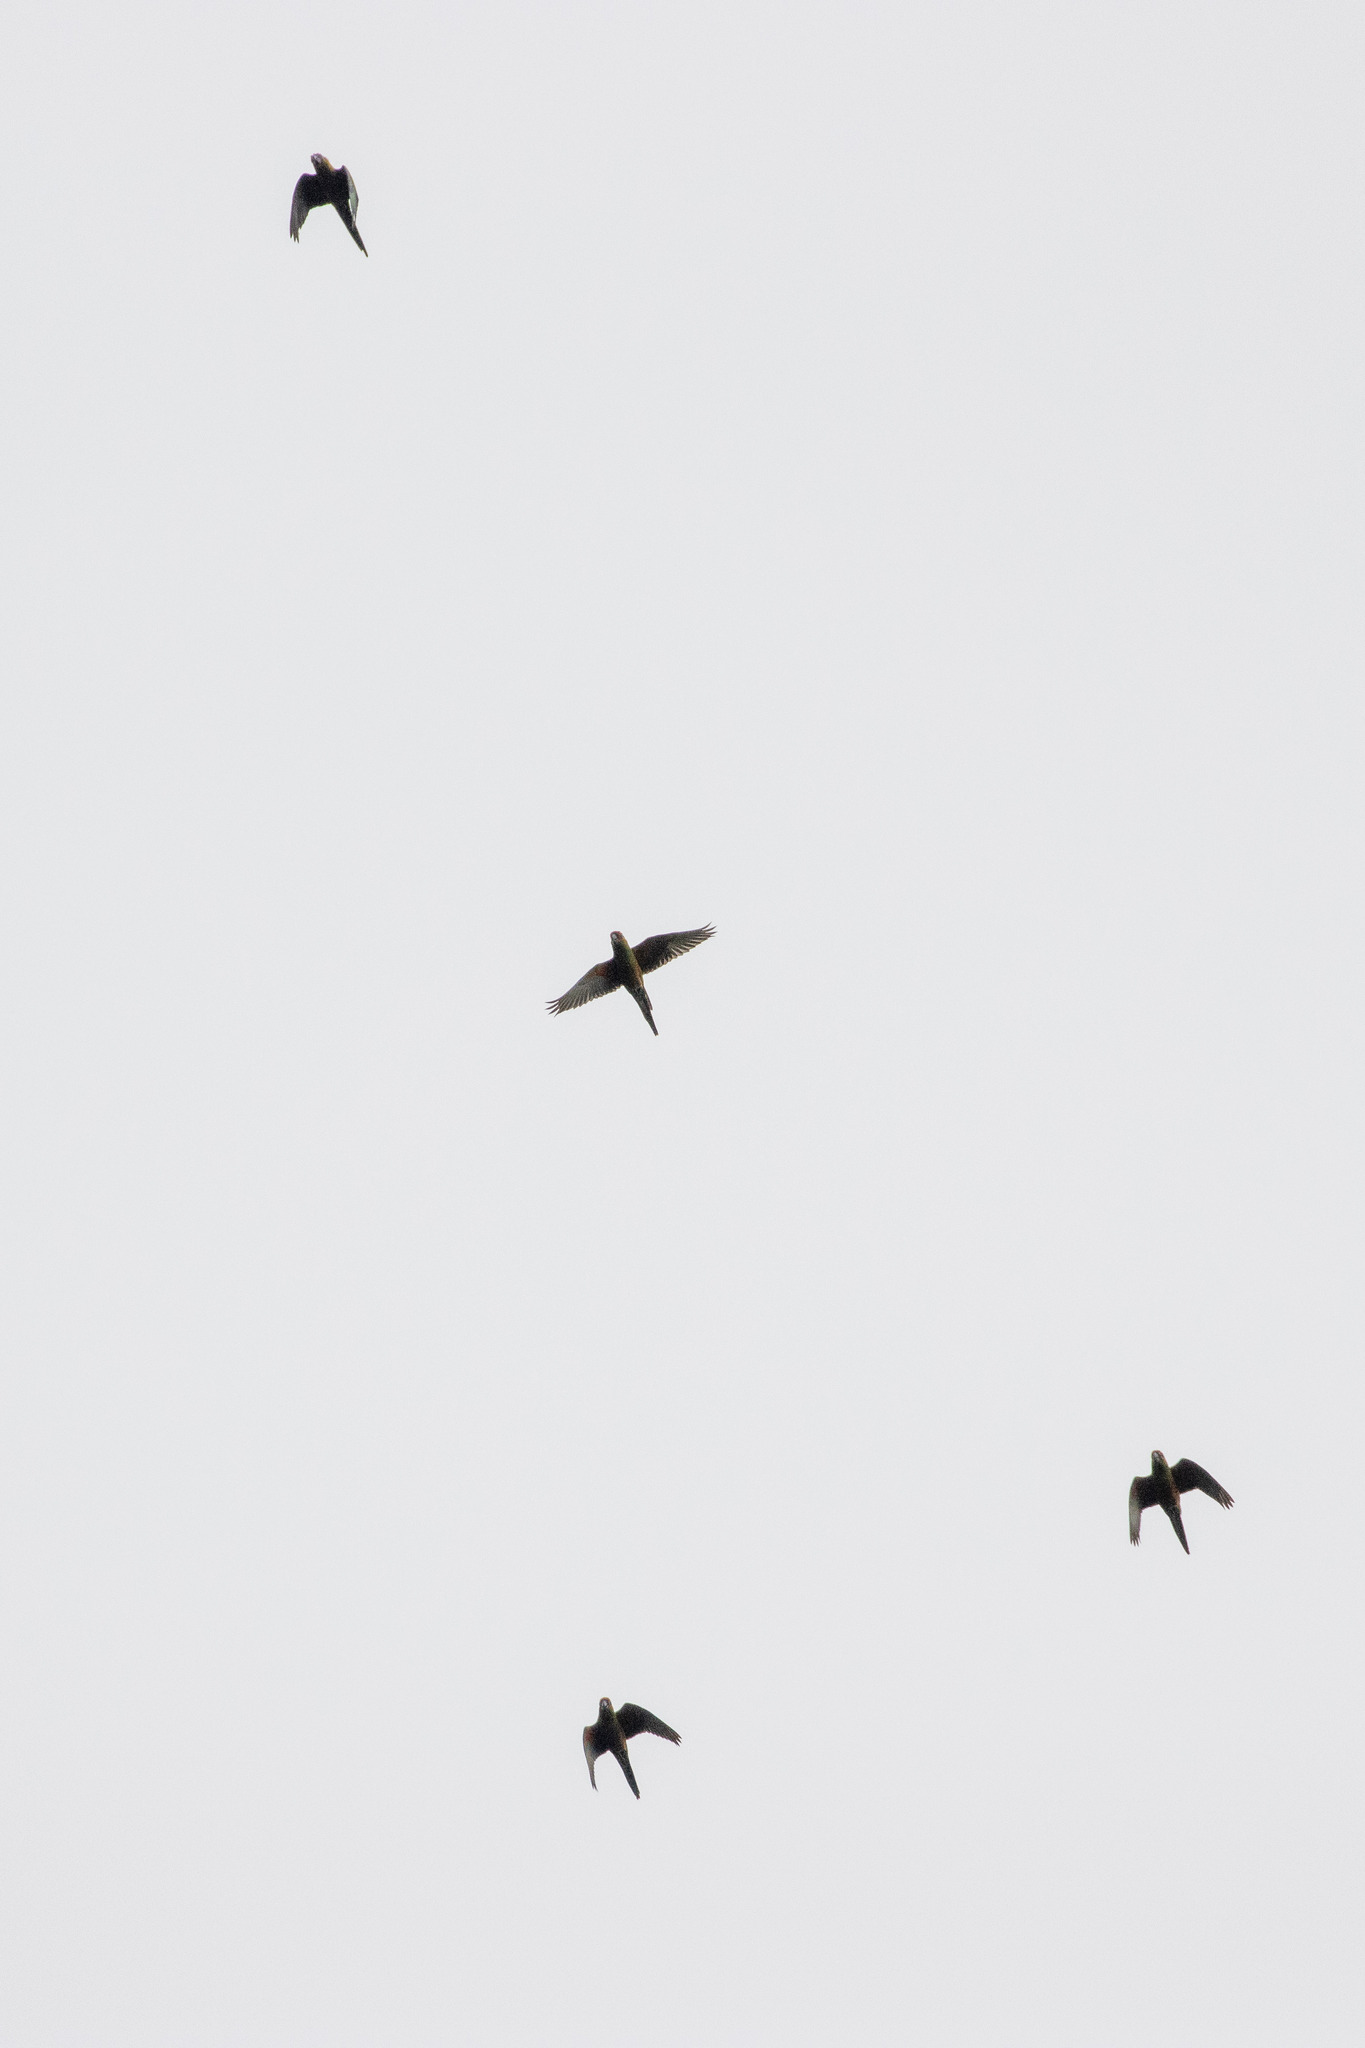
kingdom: Animalia
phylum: Chordata
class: Aves
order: Psittaciformes
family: Psittacidae
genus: Aratinga
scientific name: Aratinga auricapillus
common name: Golden-capped parakeet
